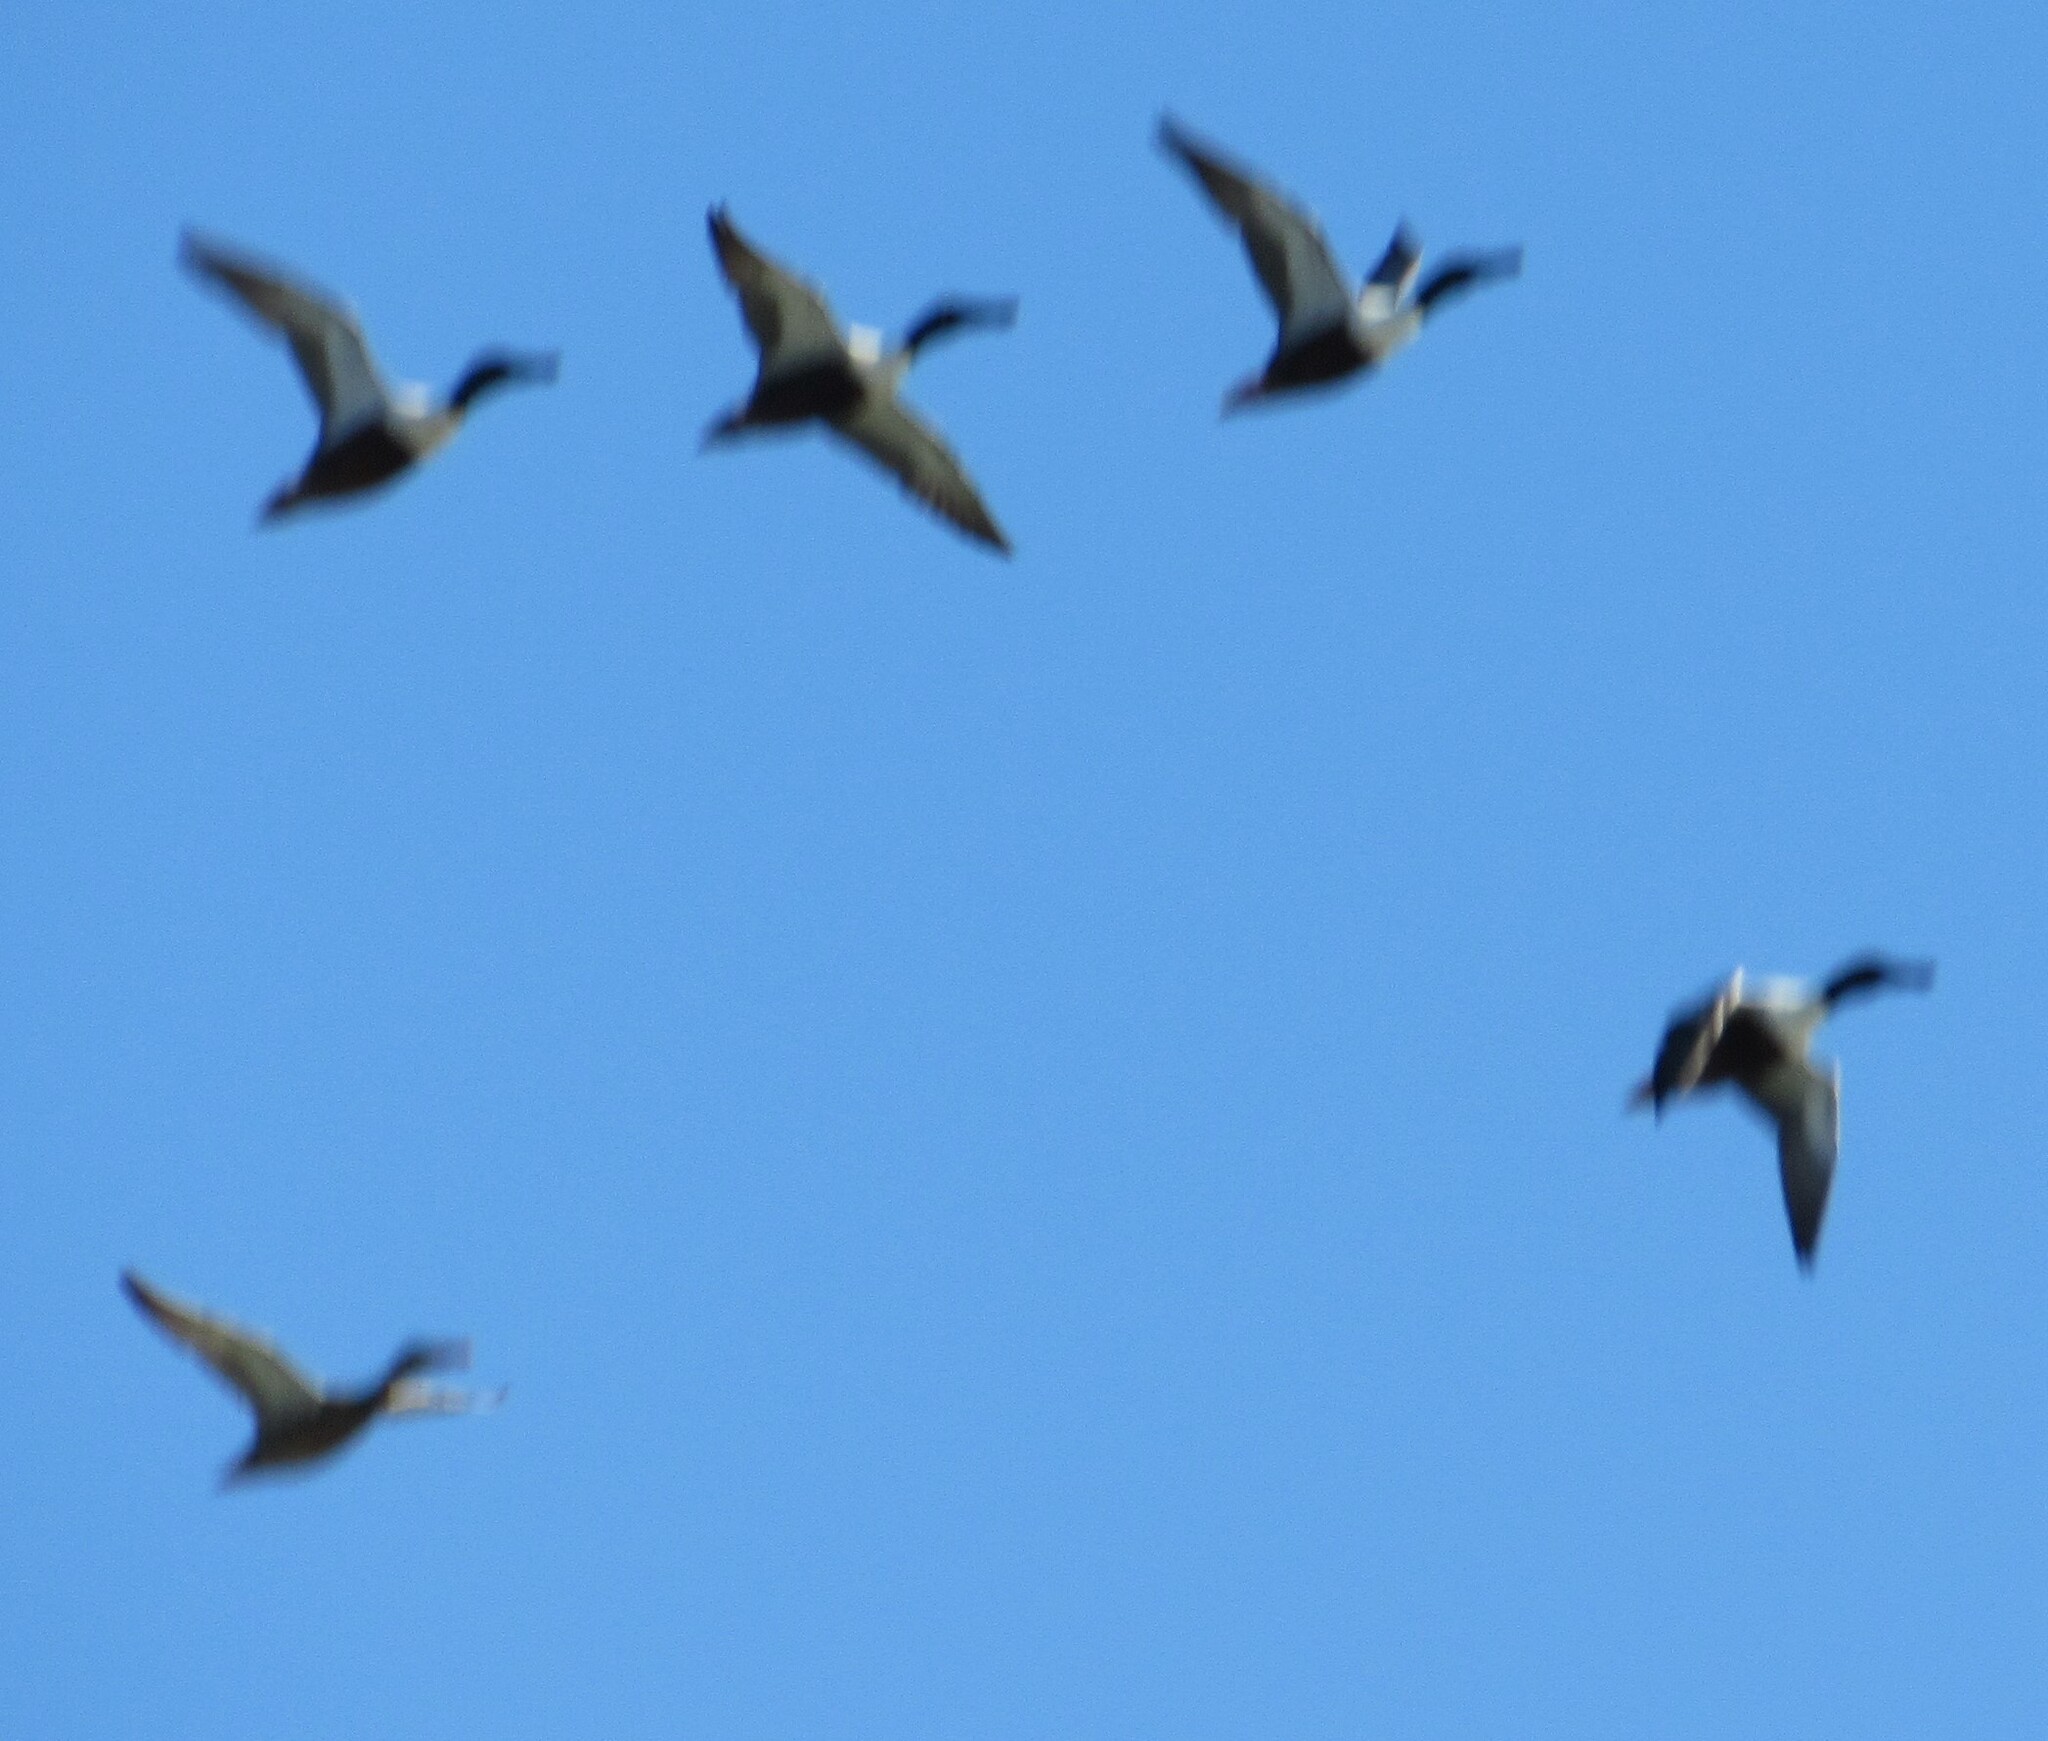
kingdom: Animalia
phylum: Chordata
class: Aves
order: Anseriformes
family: Anatidae
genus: Spatula
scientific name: Spatula clypeata
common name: Northern shoveler
